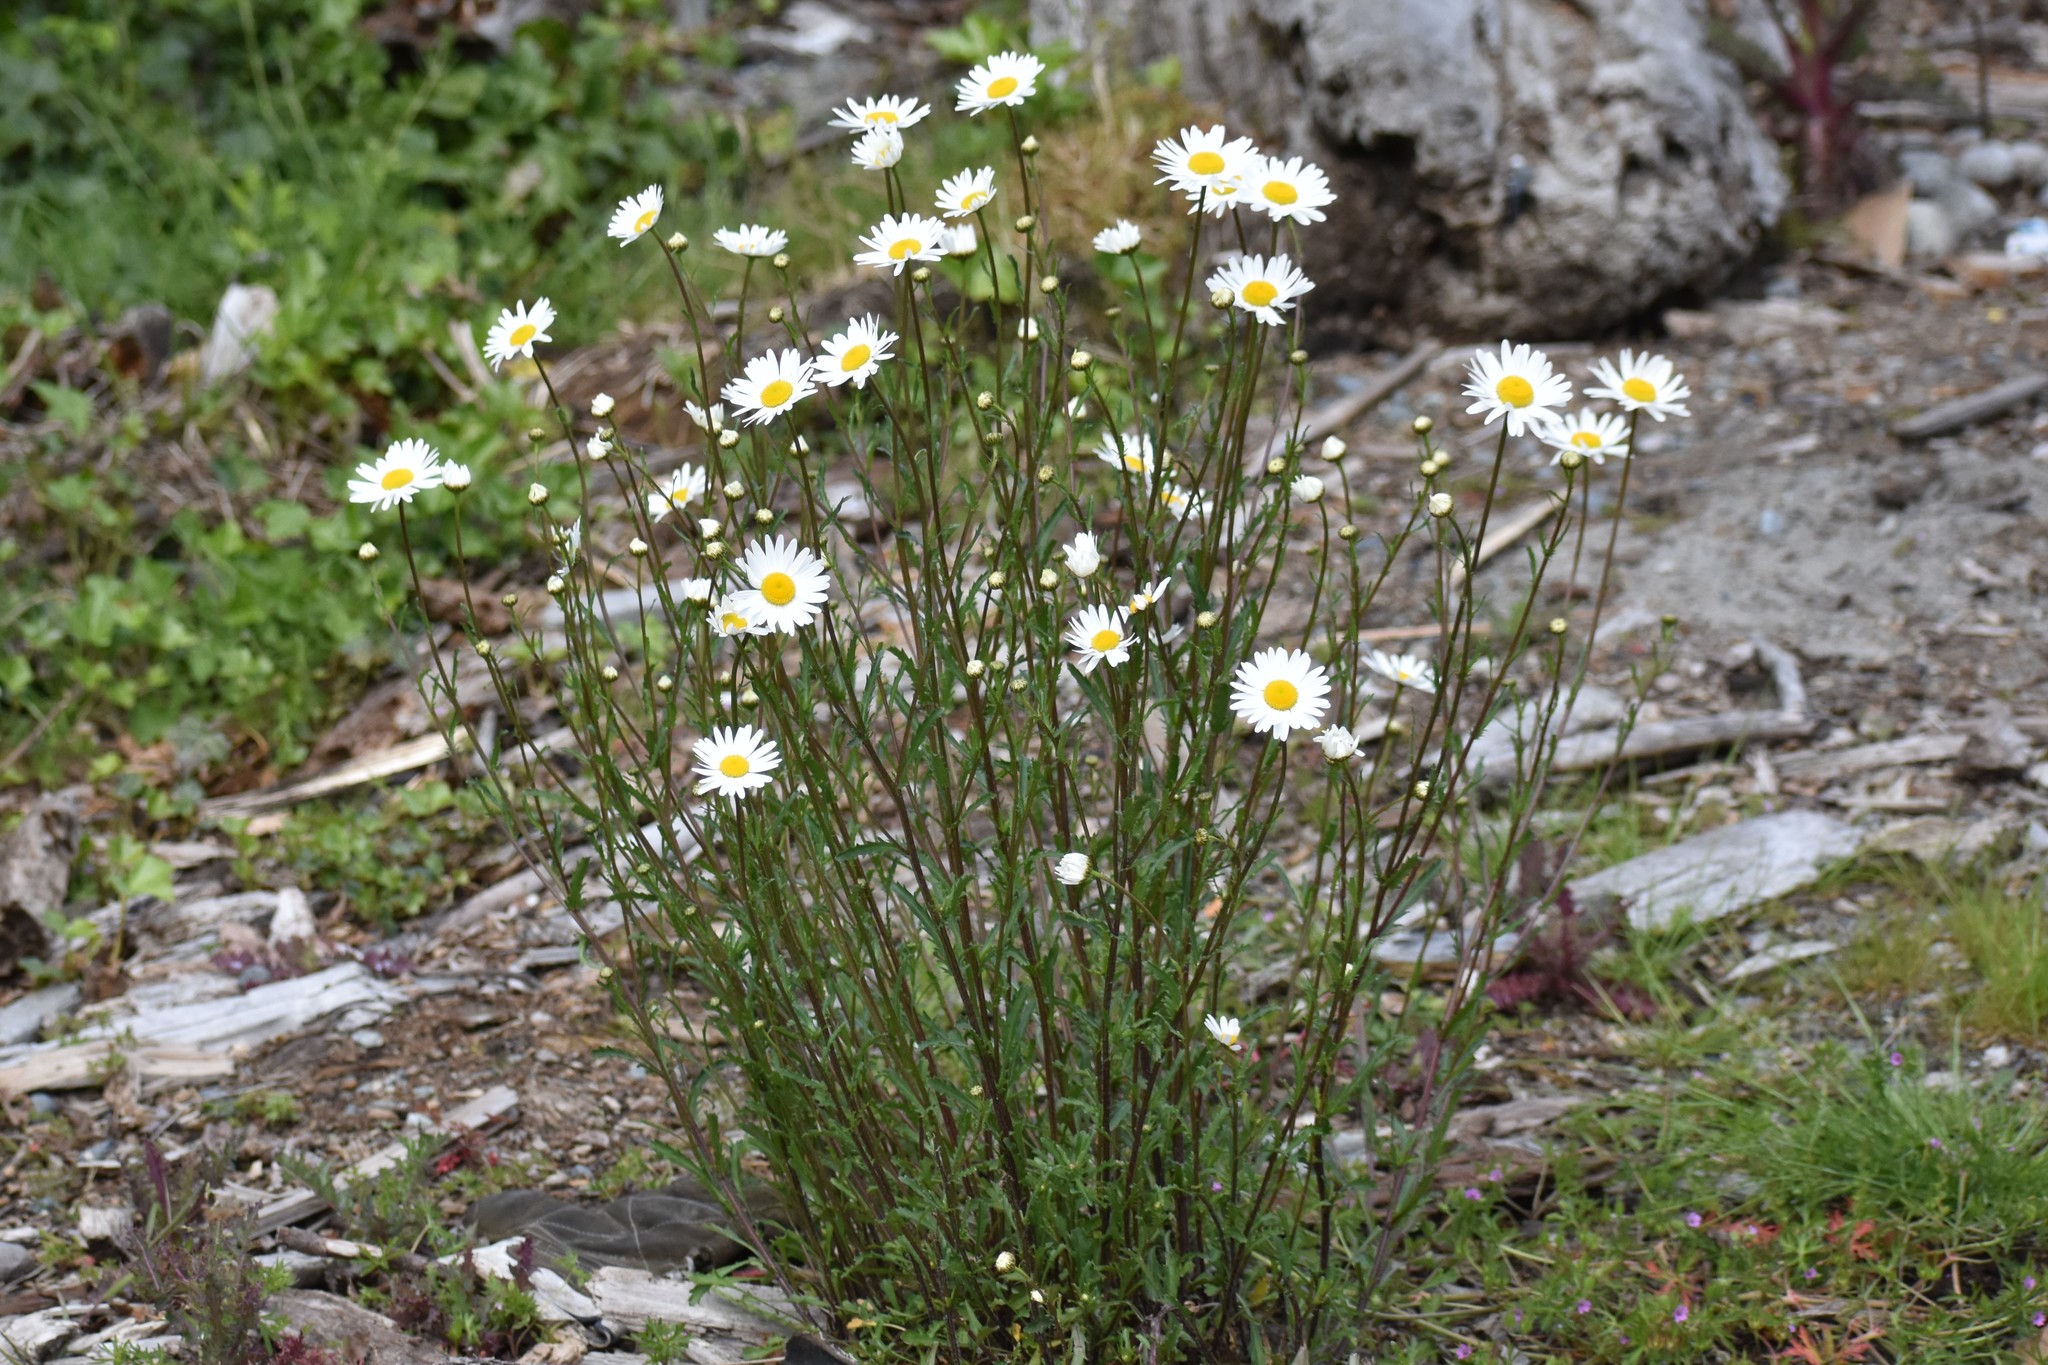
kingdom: Plantae
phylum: Tracheophyta
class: Magnoliopsida
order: Asterales
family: Asteraceae
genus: Leucanthemum
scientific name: Leucanthemum vulgare
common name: Oxeye daisy
